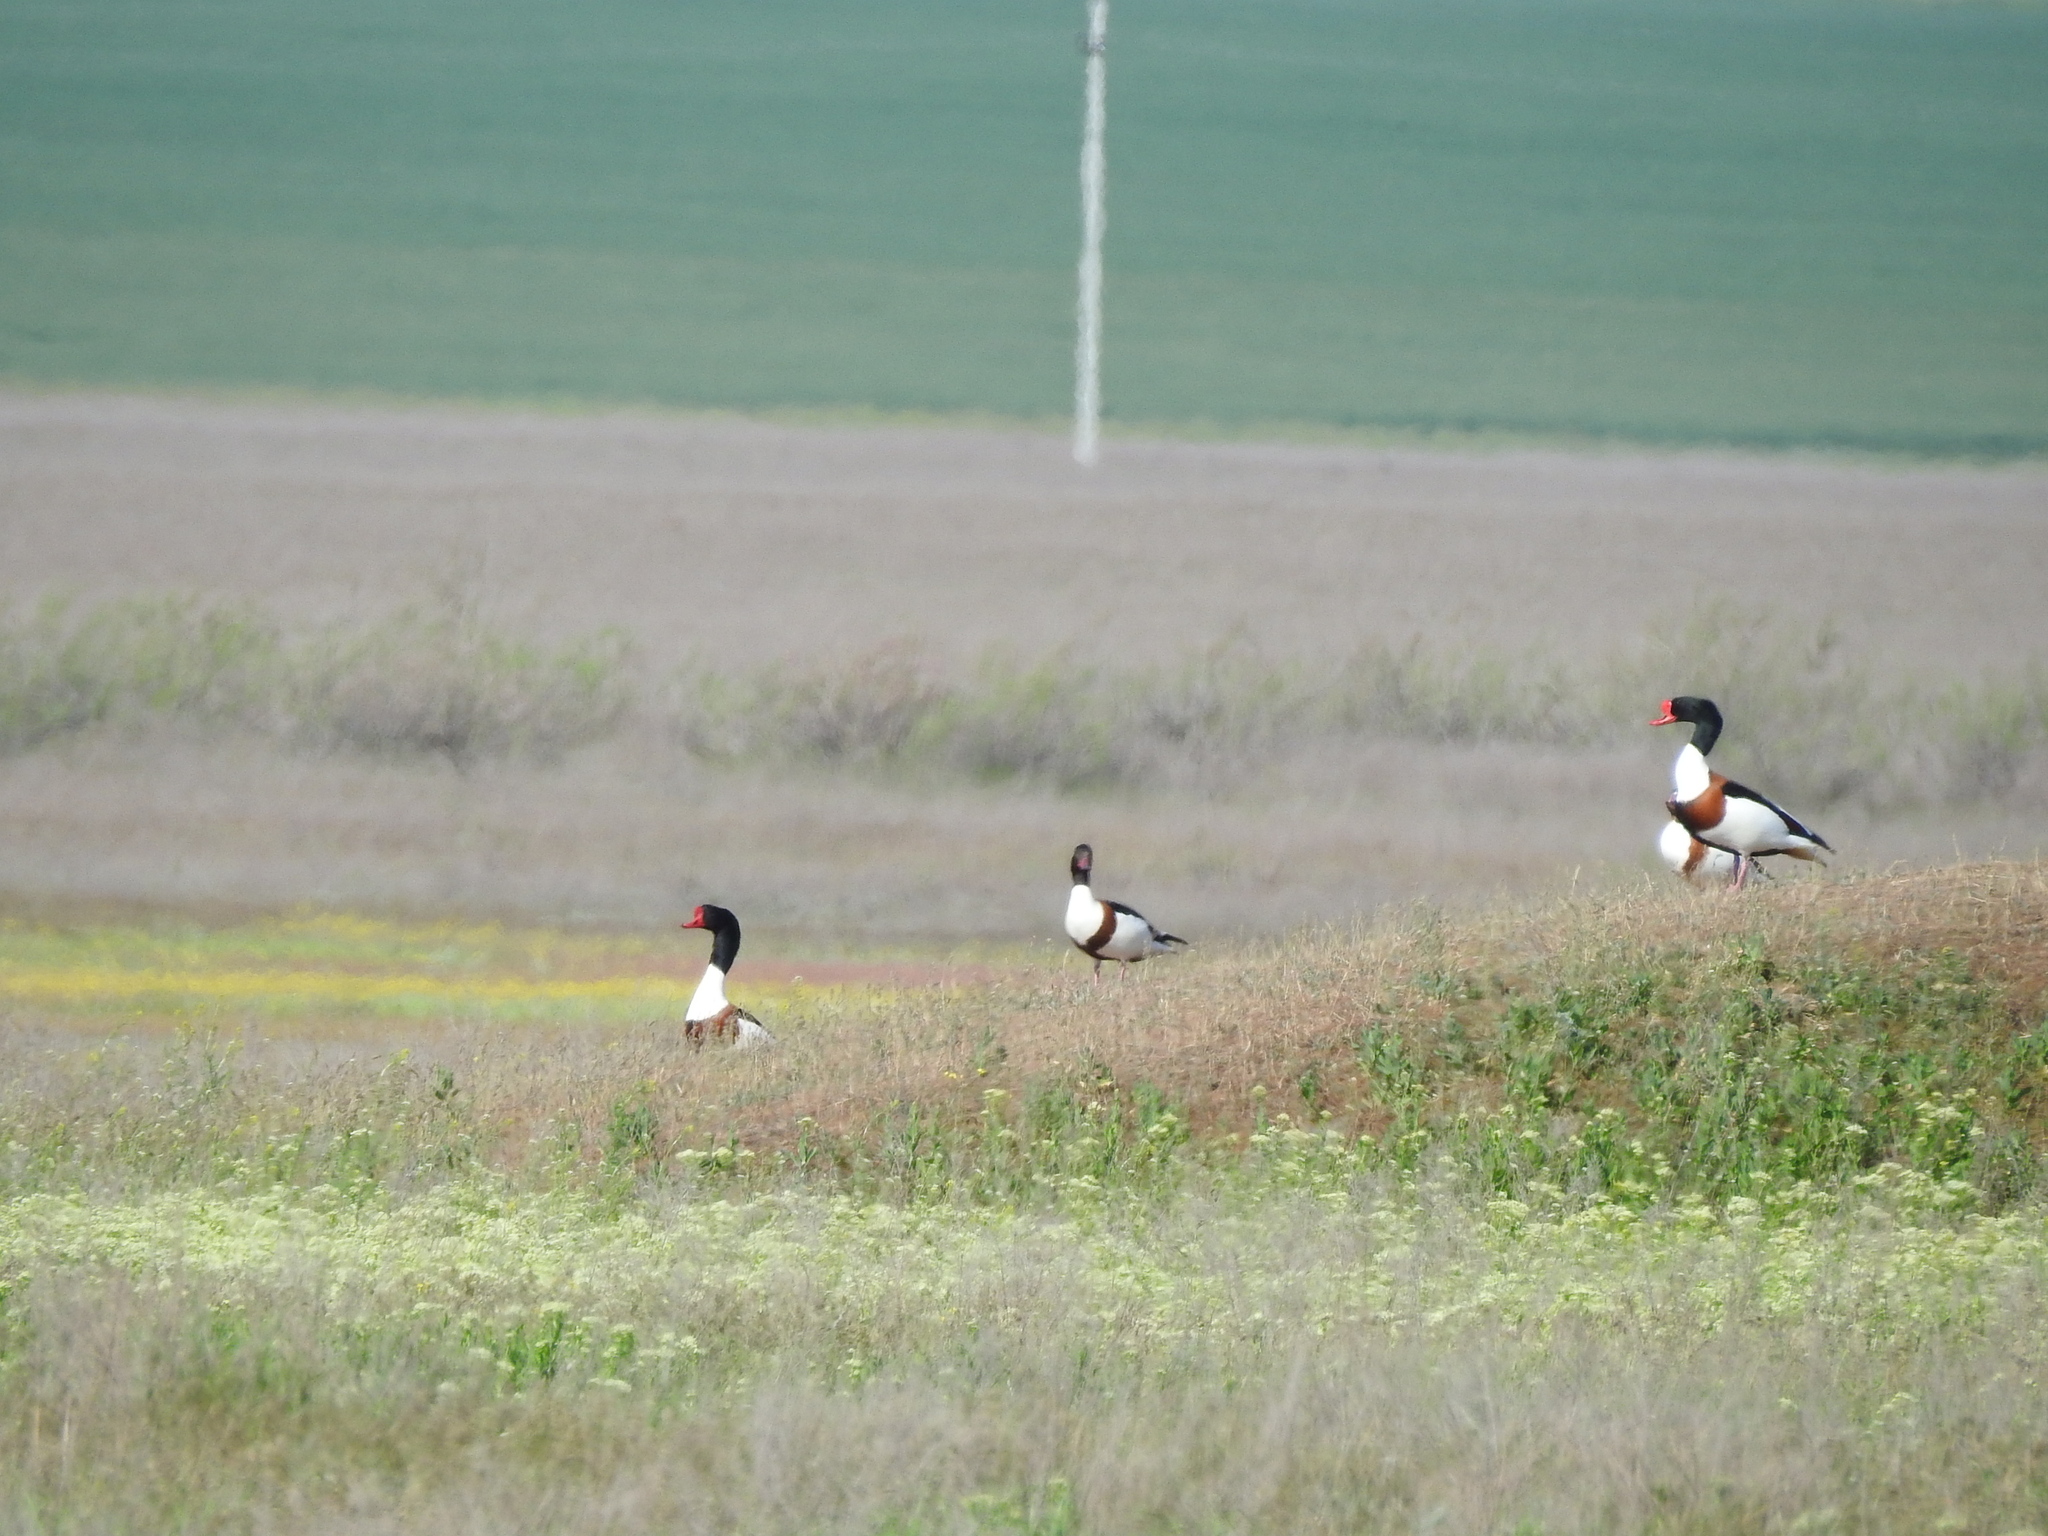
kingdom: Animalia
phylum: Chordata
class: Aves
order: Anseriformes
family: Anatidae
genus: Tadorna
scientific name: Tadorna tadorna
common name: Common shelduck
